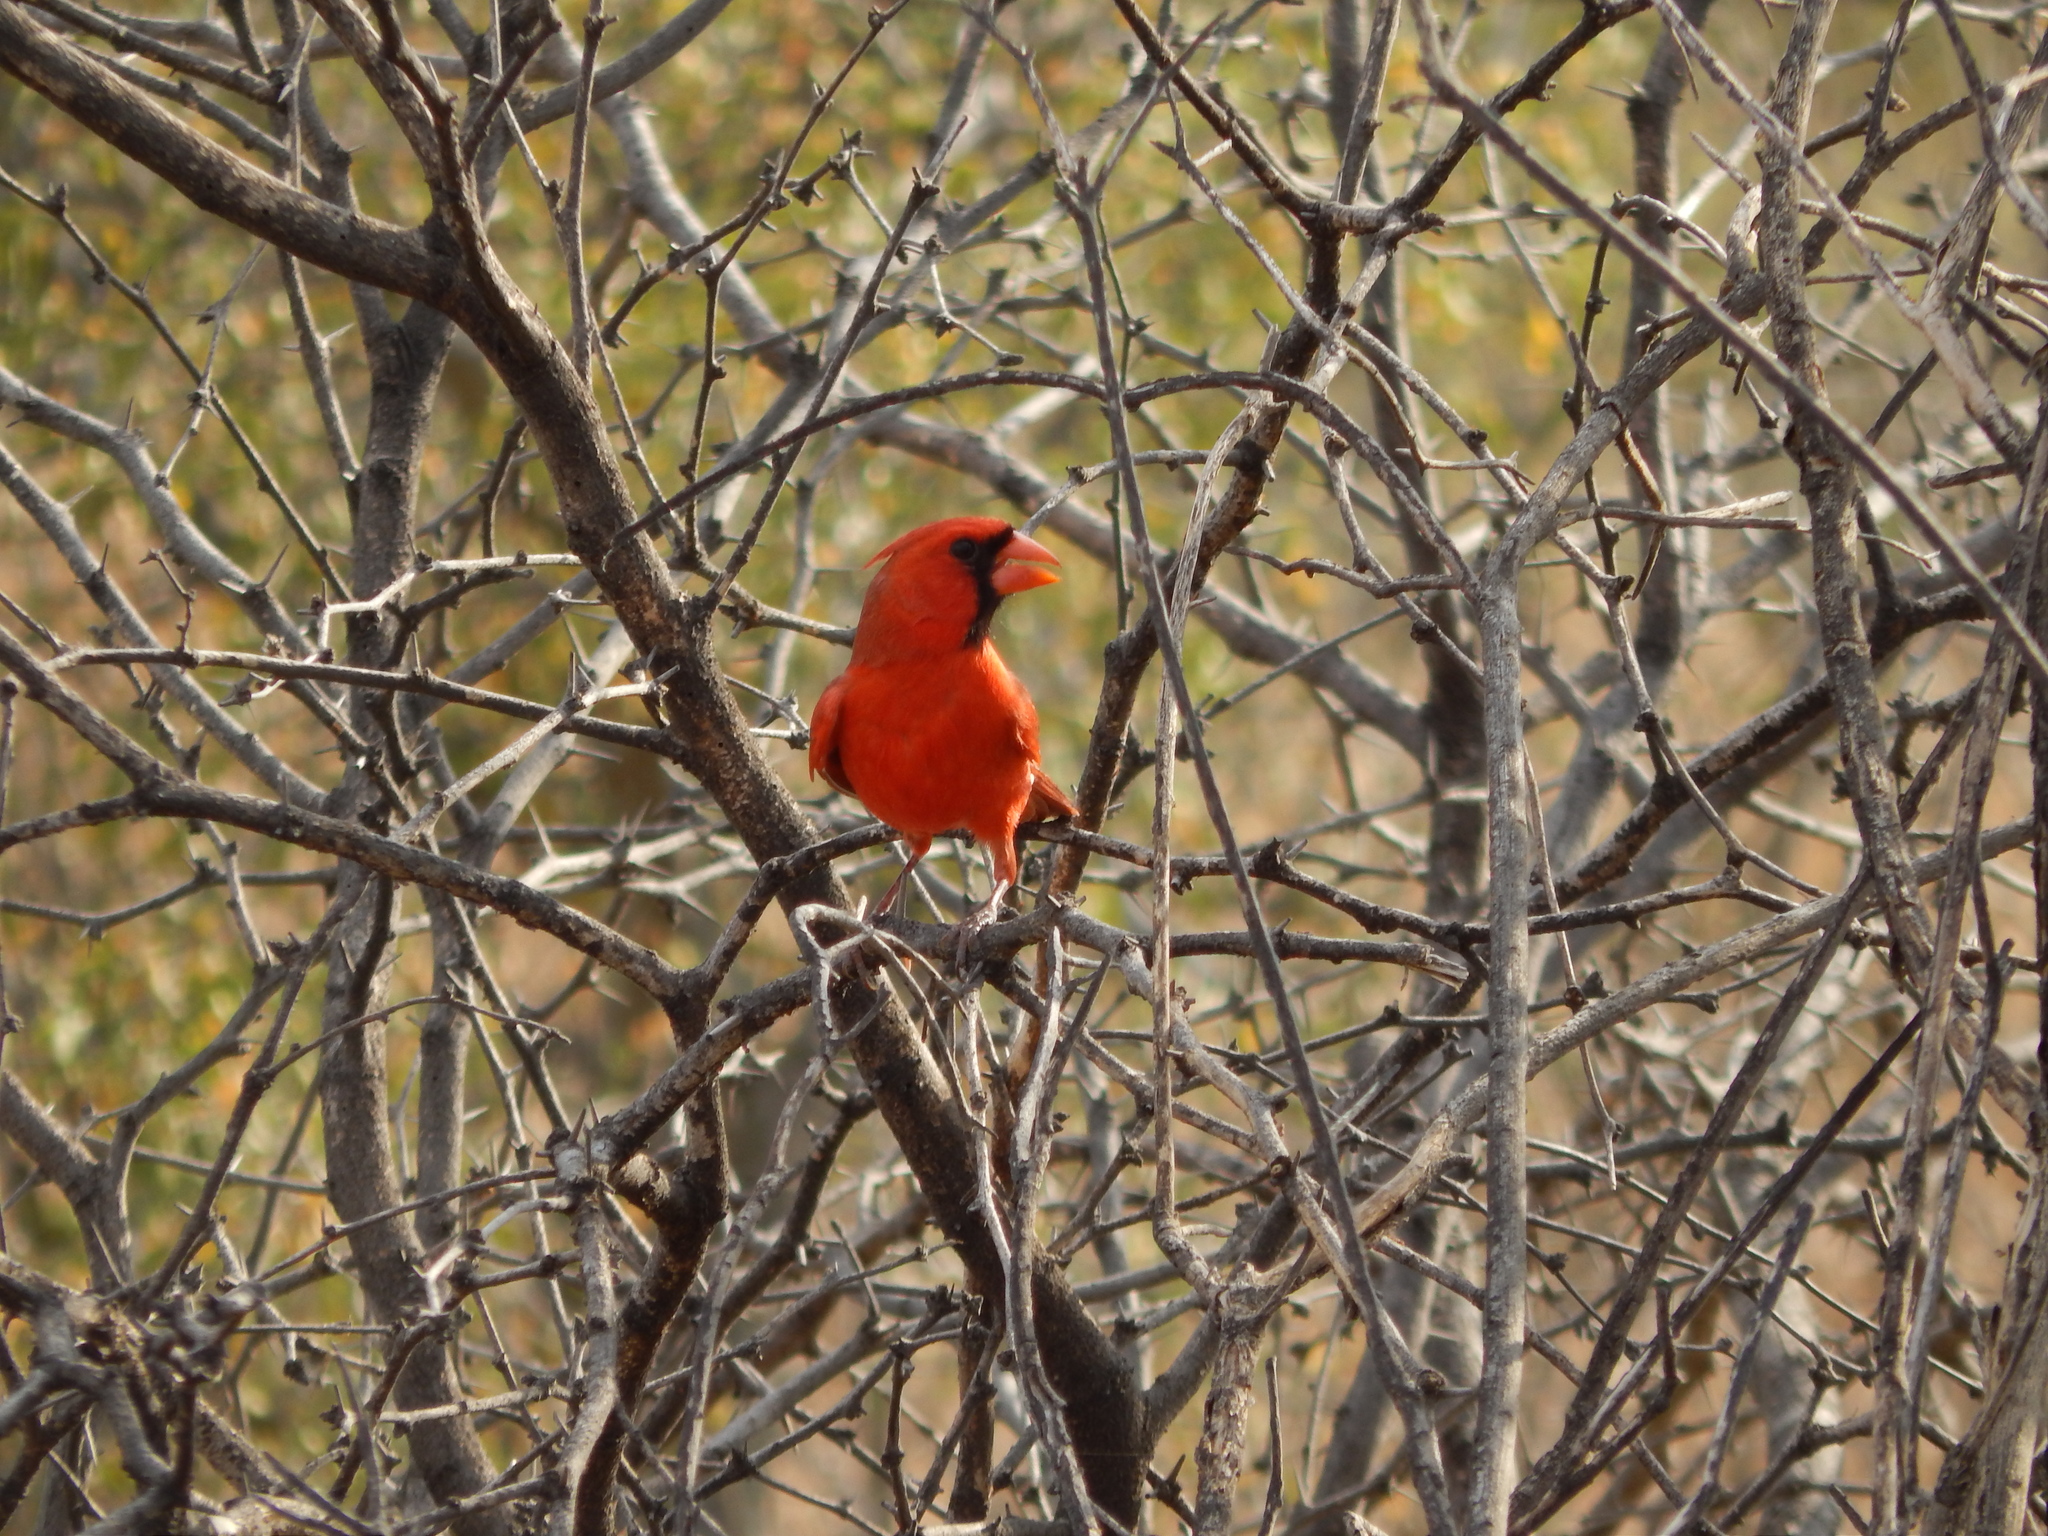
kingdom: Animalia
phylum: Chordata
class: Aves
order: Passeriformes
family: Cardinalidae
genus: Cardinalis
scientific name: Cardinalis cardinalis
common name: Northern cardinal
